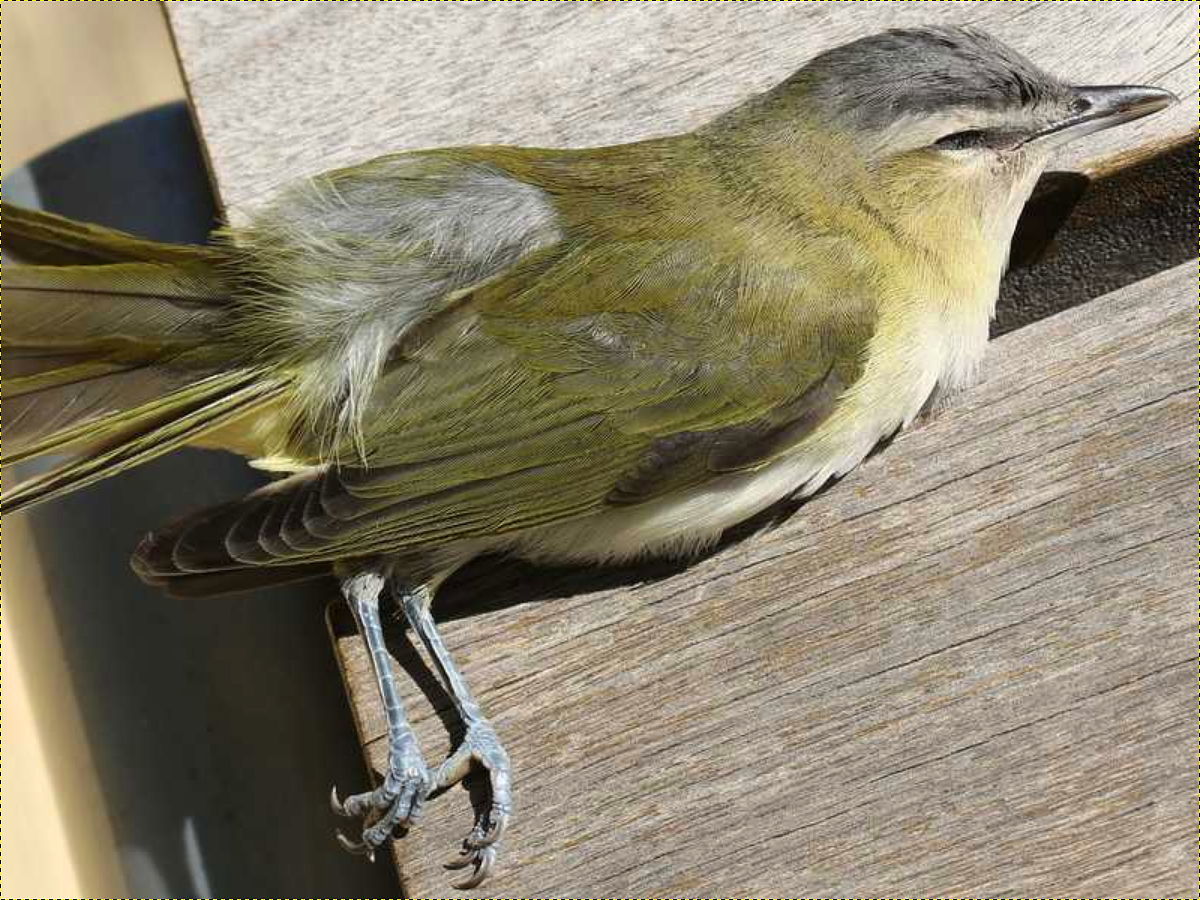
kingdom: Animalia
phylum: Chordata
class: Aves
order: Passeriformes
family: Vireonidae
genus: Vireo
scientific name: Vireo olivaceus
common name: Red-eyed vireo
